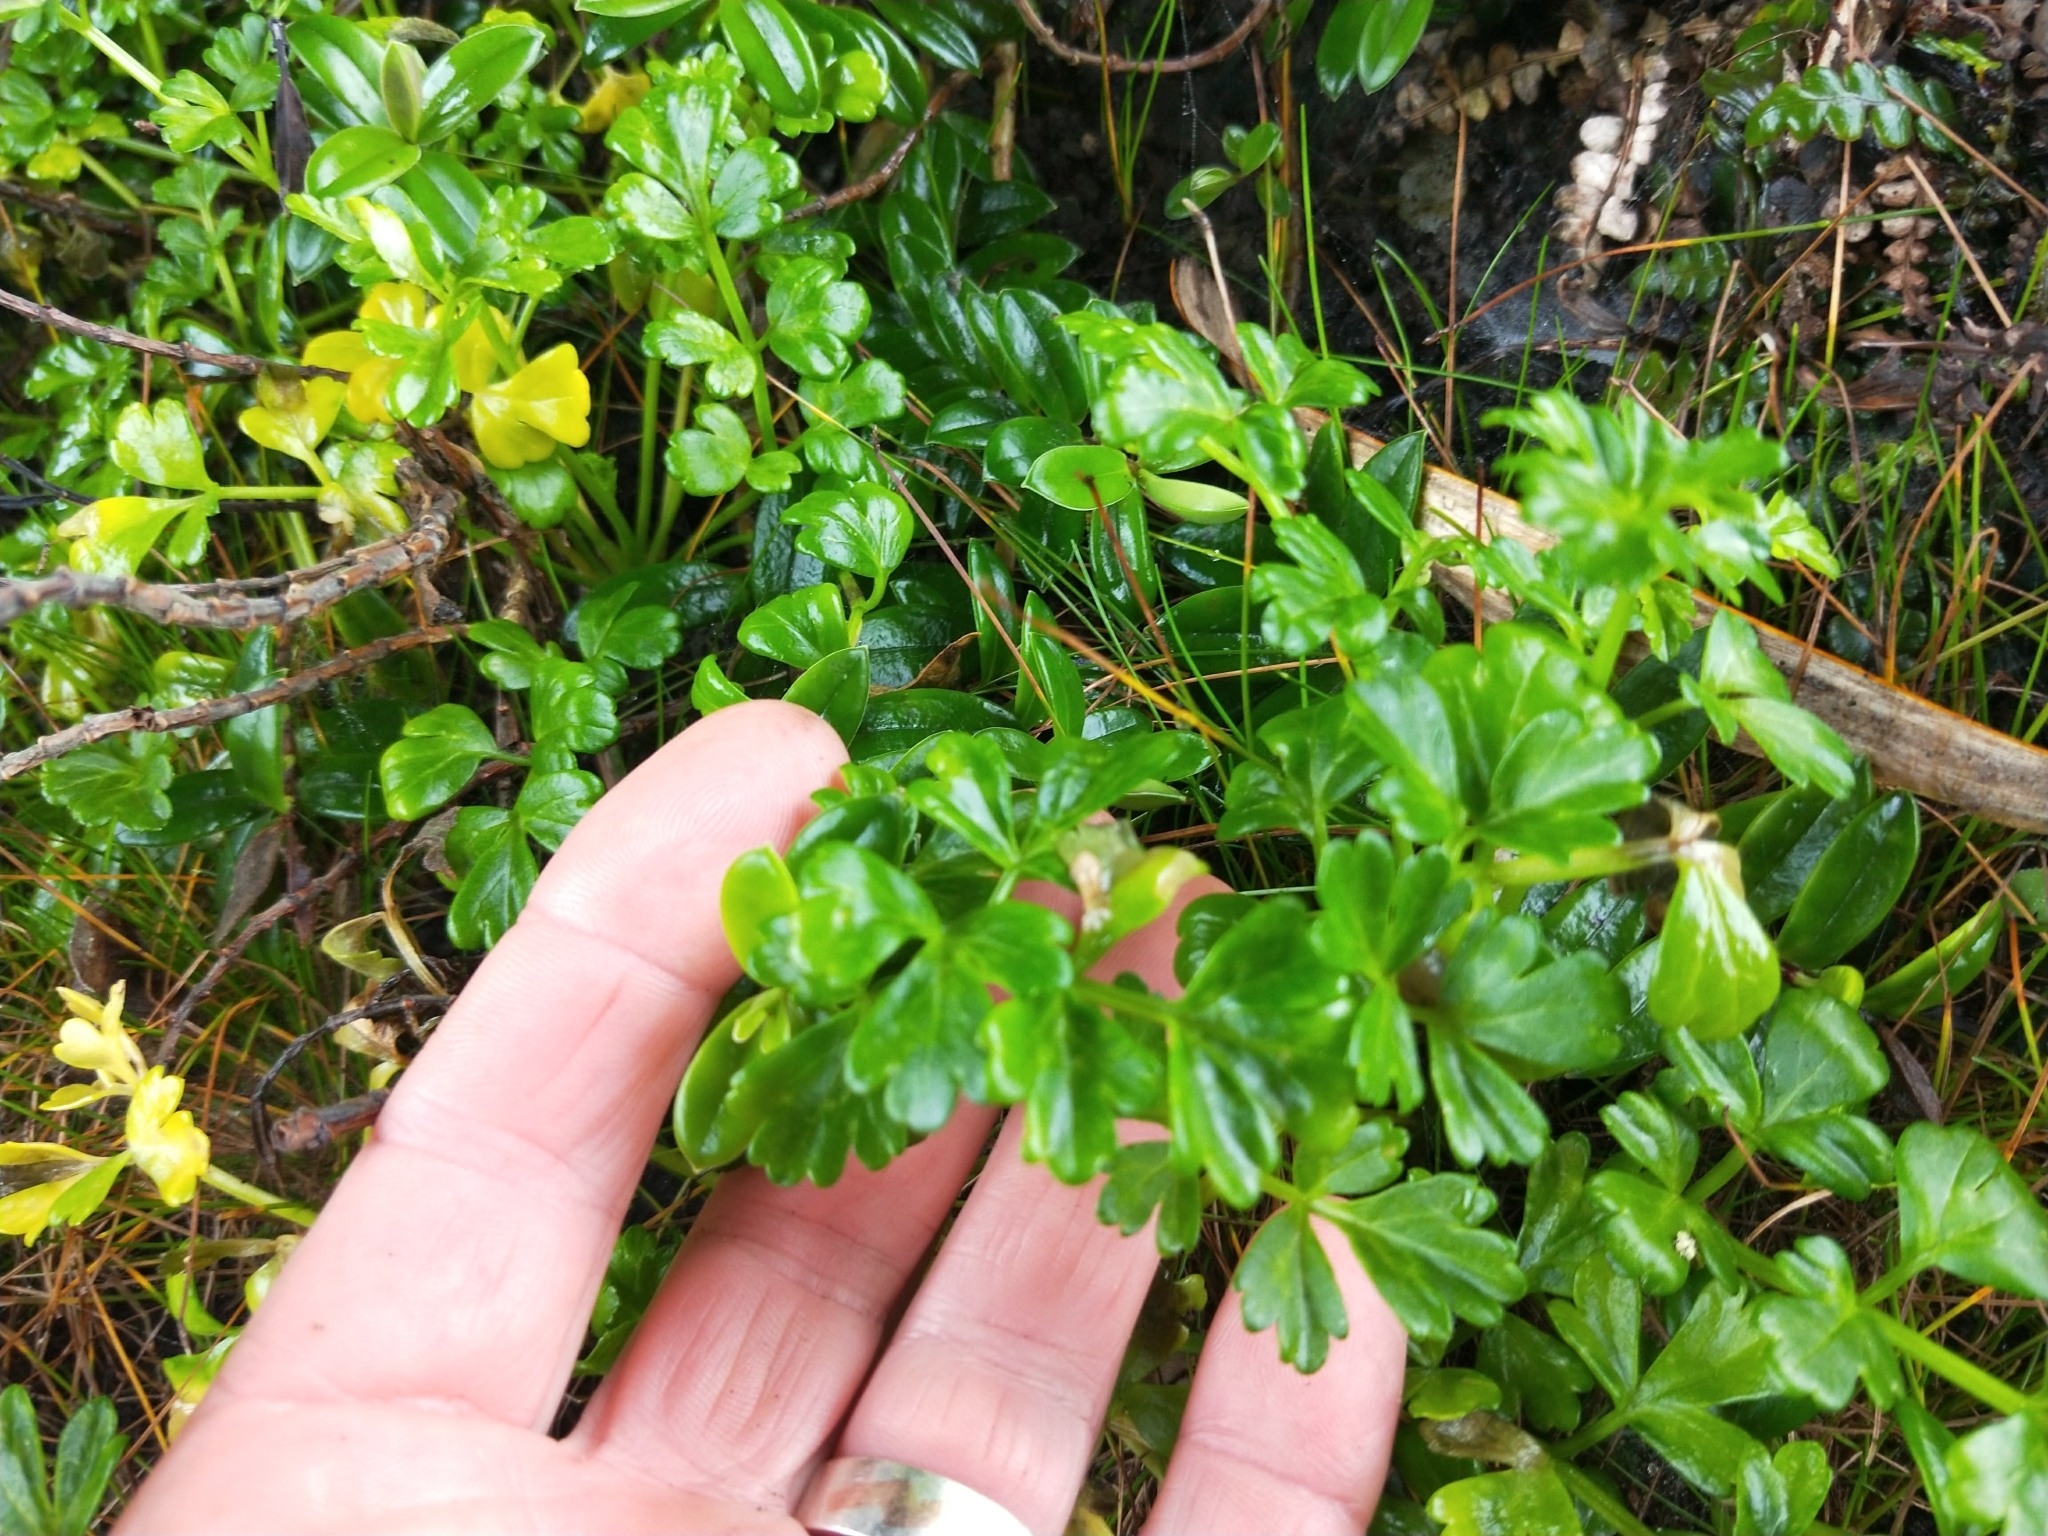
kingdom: Plantae
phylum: Tracheophyta
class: Magnoliopsida
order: Apiales
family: Apiaceae
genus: Apium
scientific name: Apium prostratum
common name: Prostrate marshwort
